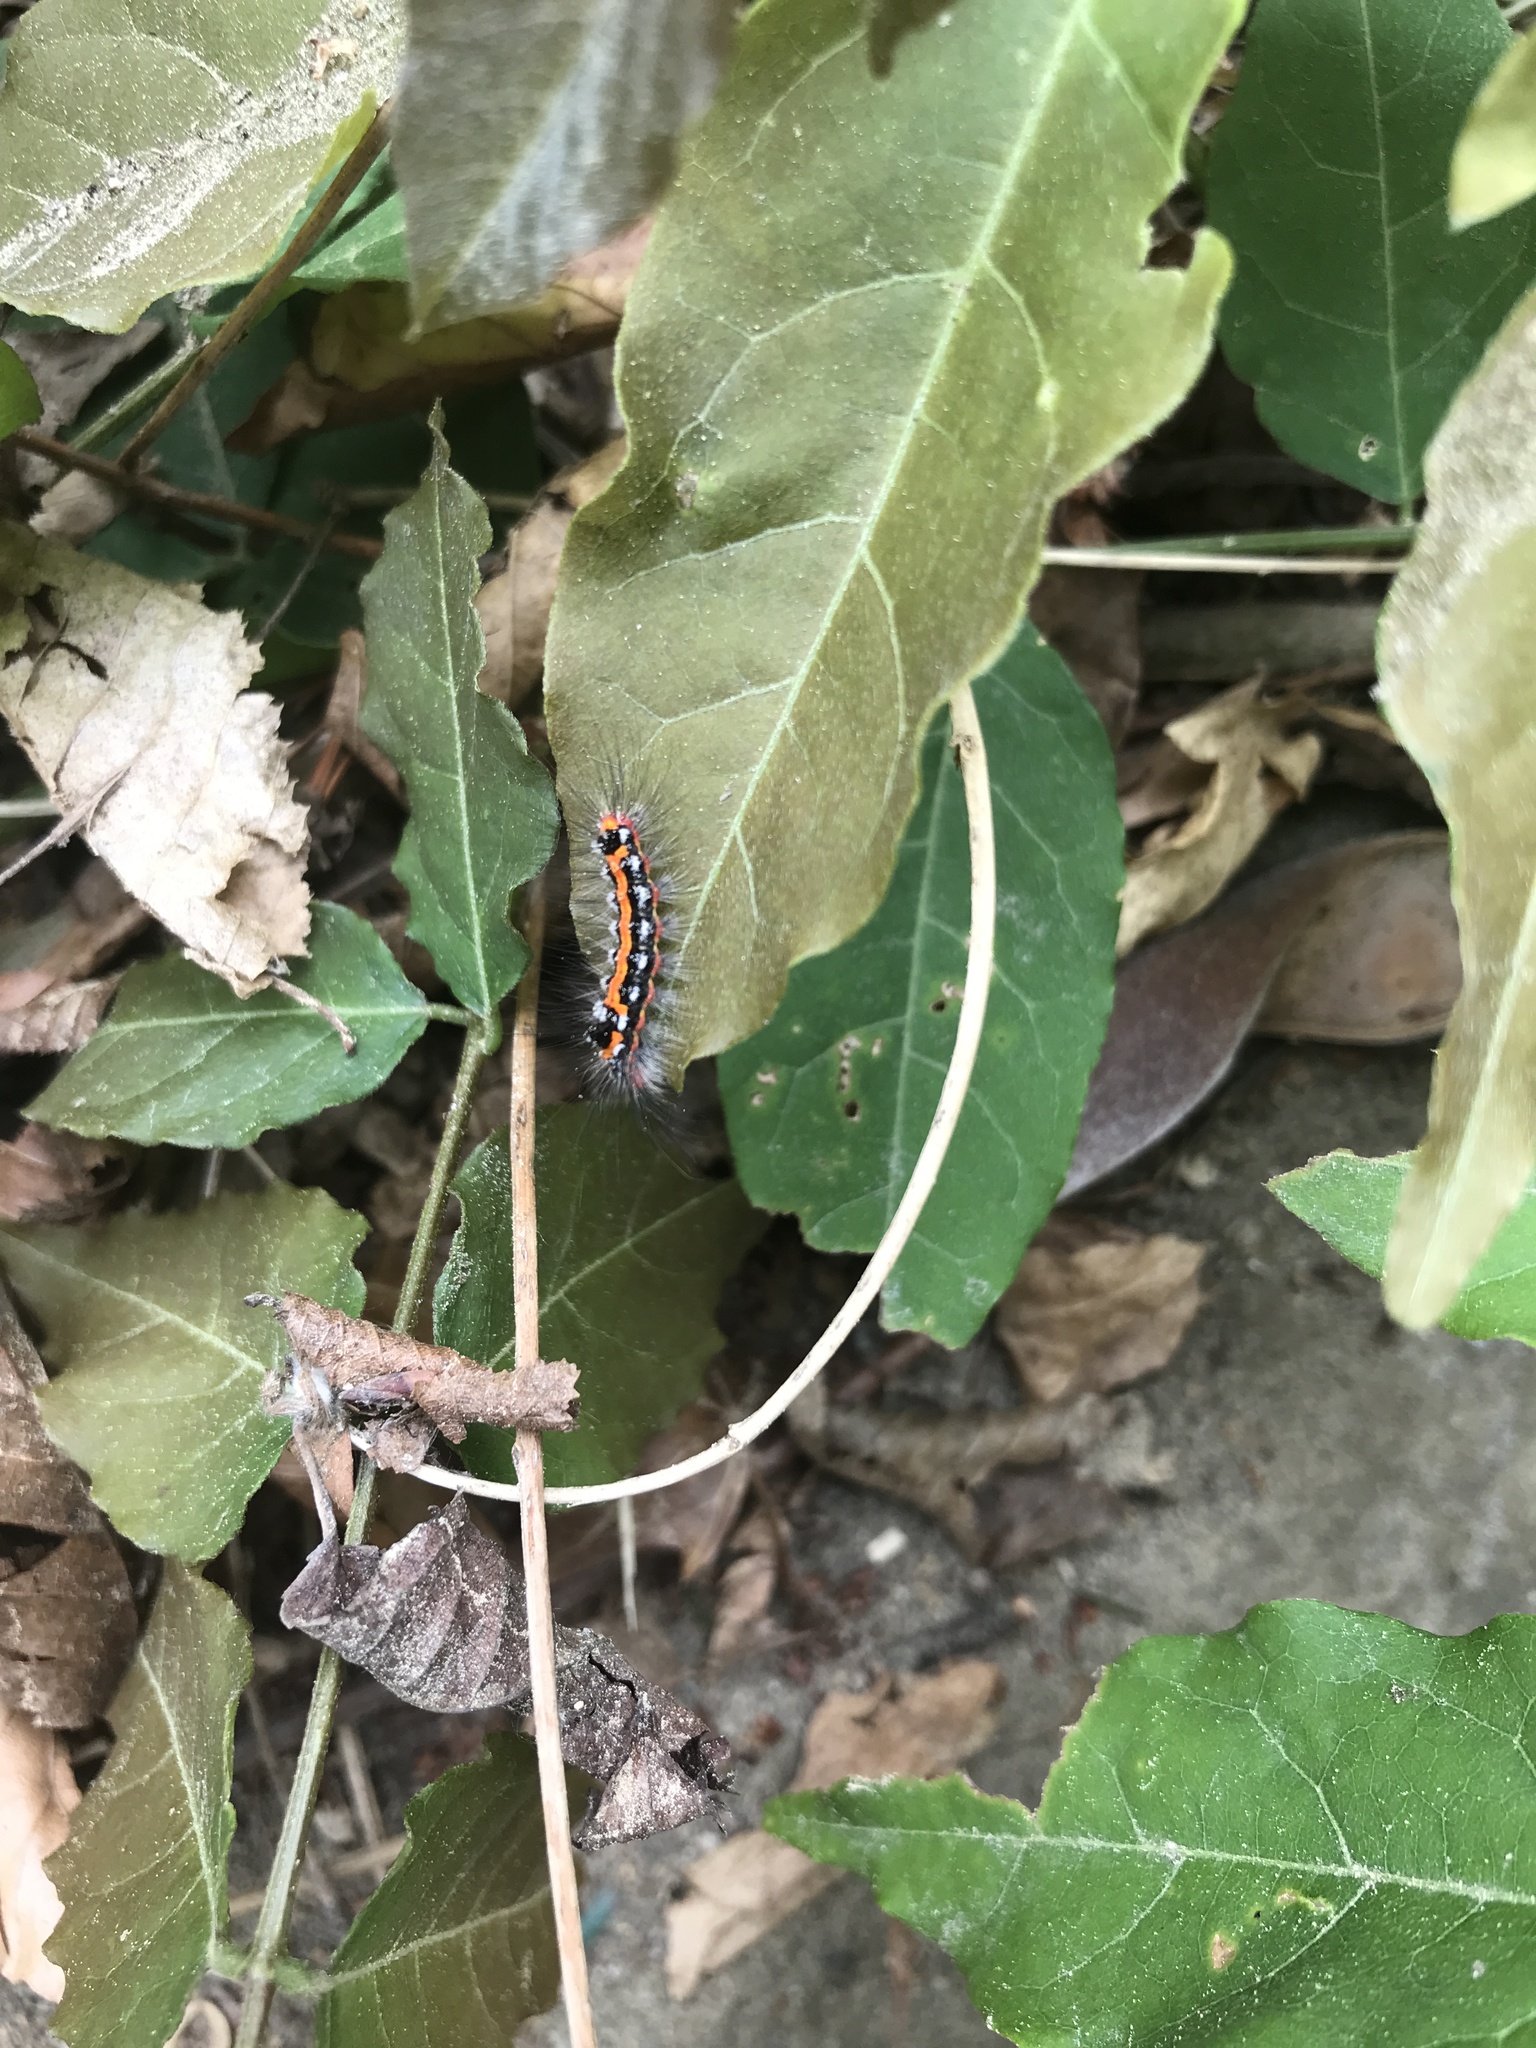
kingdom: Animalia
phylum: Arthropoda
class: Insecta
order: Lepidoptera
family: Erebidae
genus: Sphrageidus
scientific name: Sphrageidus similis
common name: Yellow-tail
